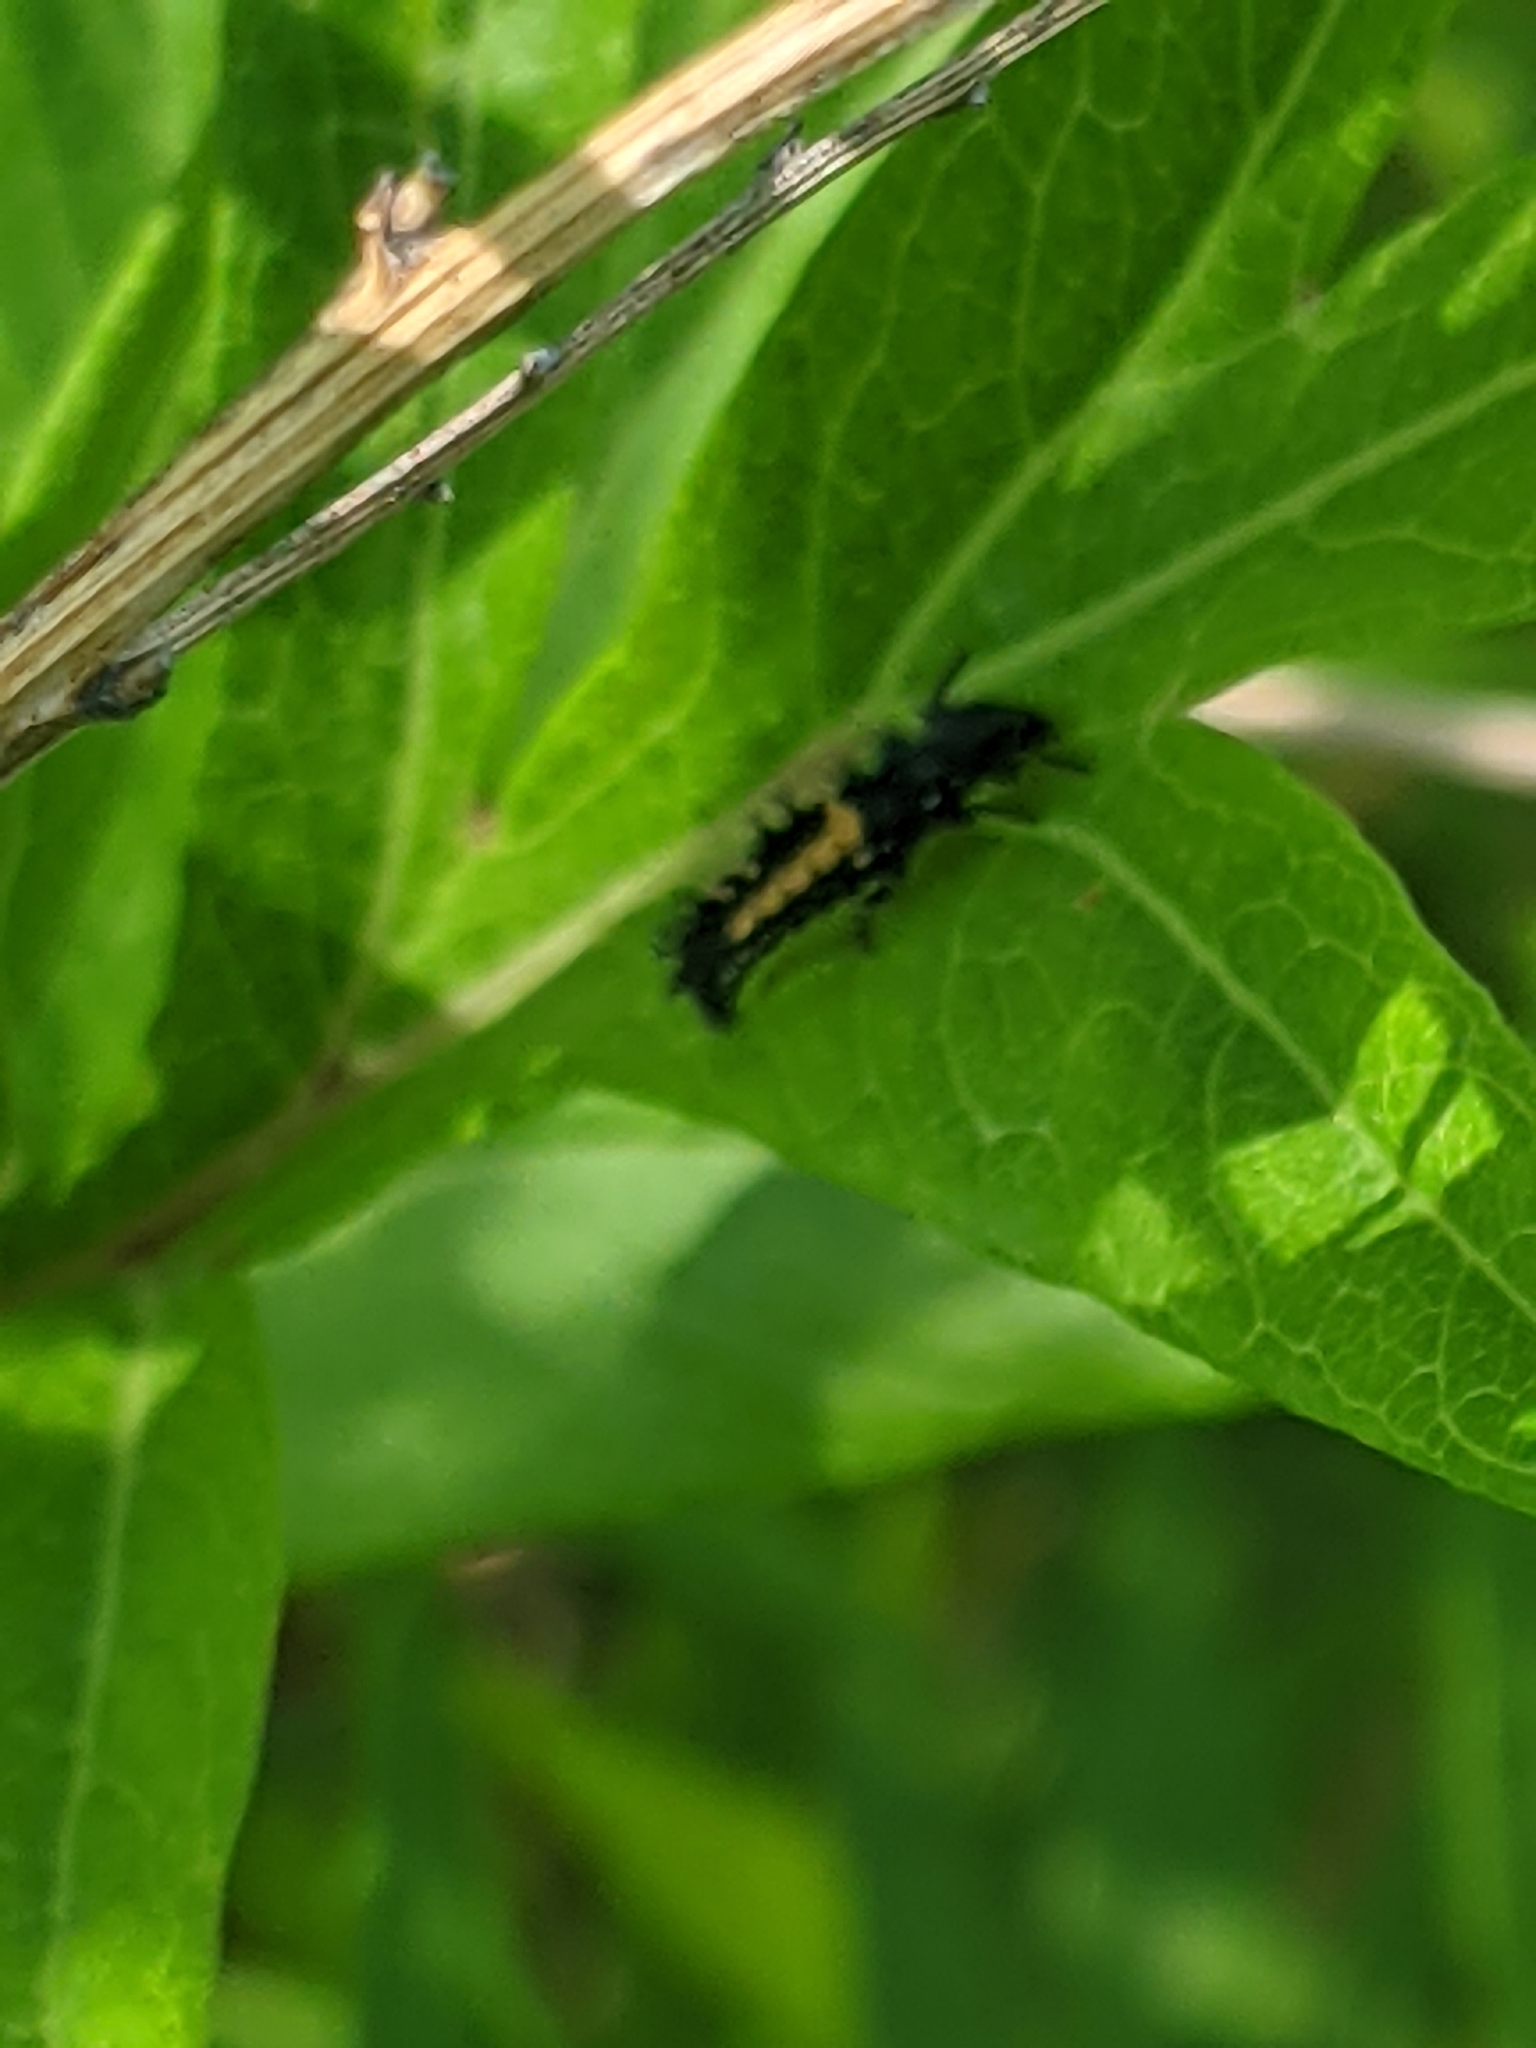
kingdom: Animalia
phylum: Arthropoda
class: Insecta
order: Coleoptera
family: Coccinellidae
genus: Harmonia
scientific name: Harmonia axyridis
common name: Harlequin ladybird
